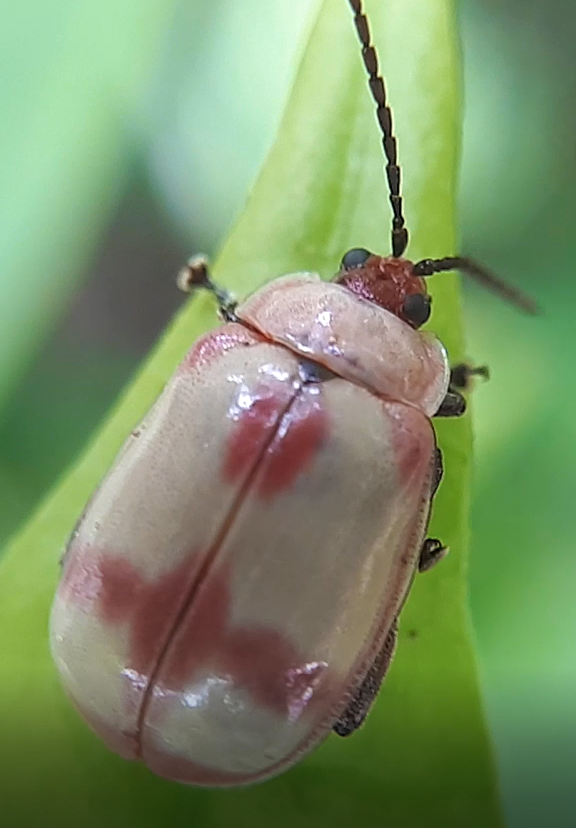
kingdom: Animalia
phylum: Arthropoda
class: Insecta
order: Coleoptera
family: Chrysomelidae
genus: Wanderbiltiana
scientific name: Wanderbiltiana
